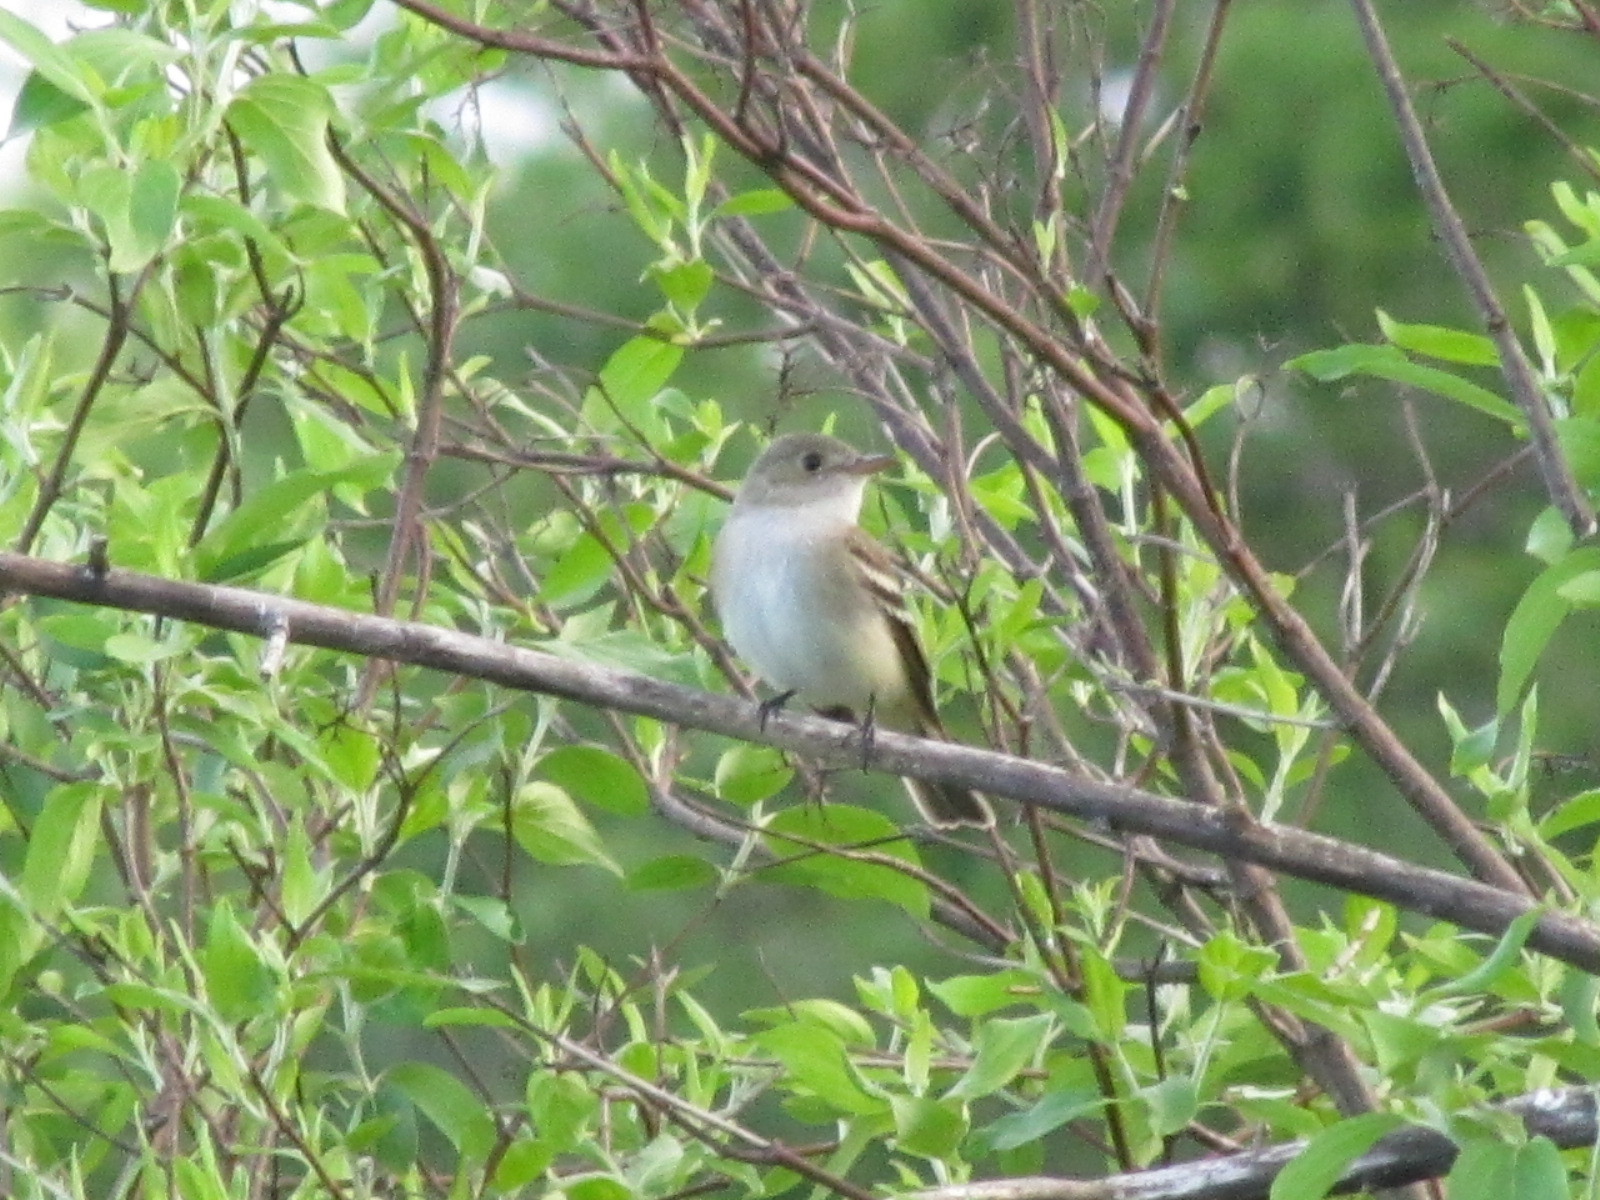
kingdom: Animalia
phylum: Chordata
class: Aves
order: Passeriformes
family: Tyrannidae
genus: Empidonax
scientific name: Empidonax alnorum
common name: Alder flycatcher
